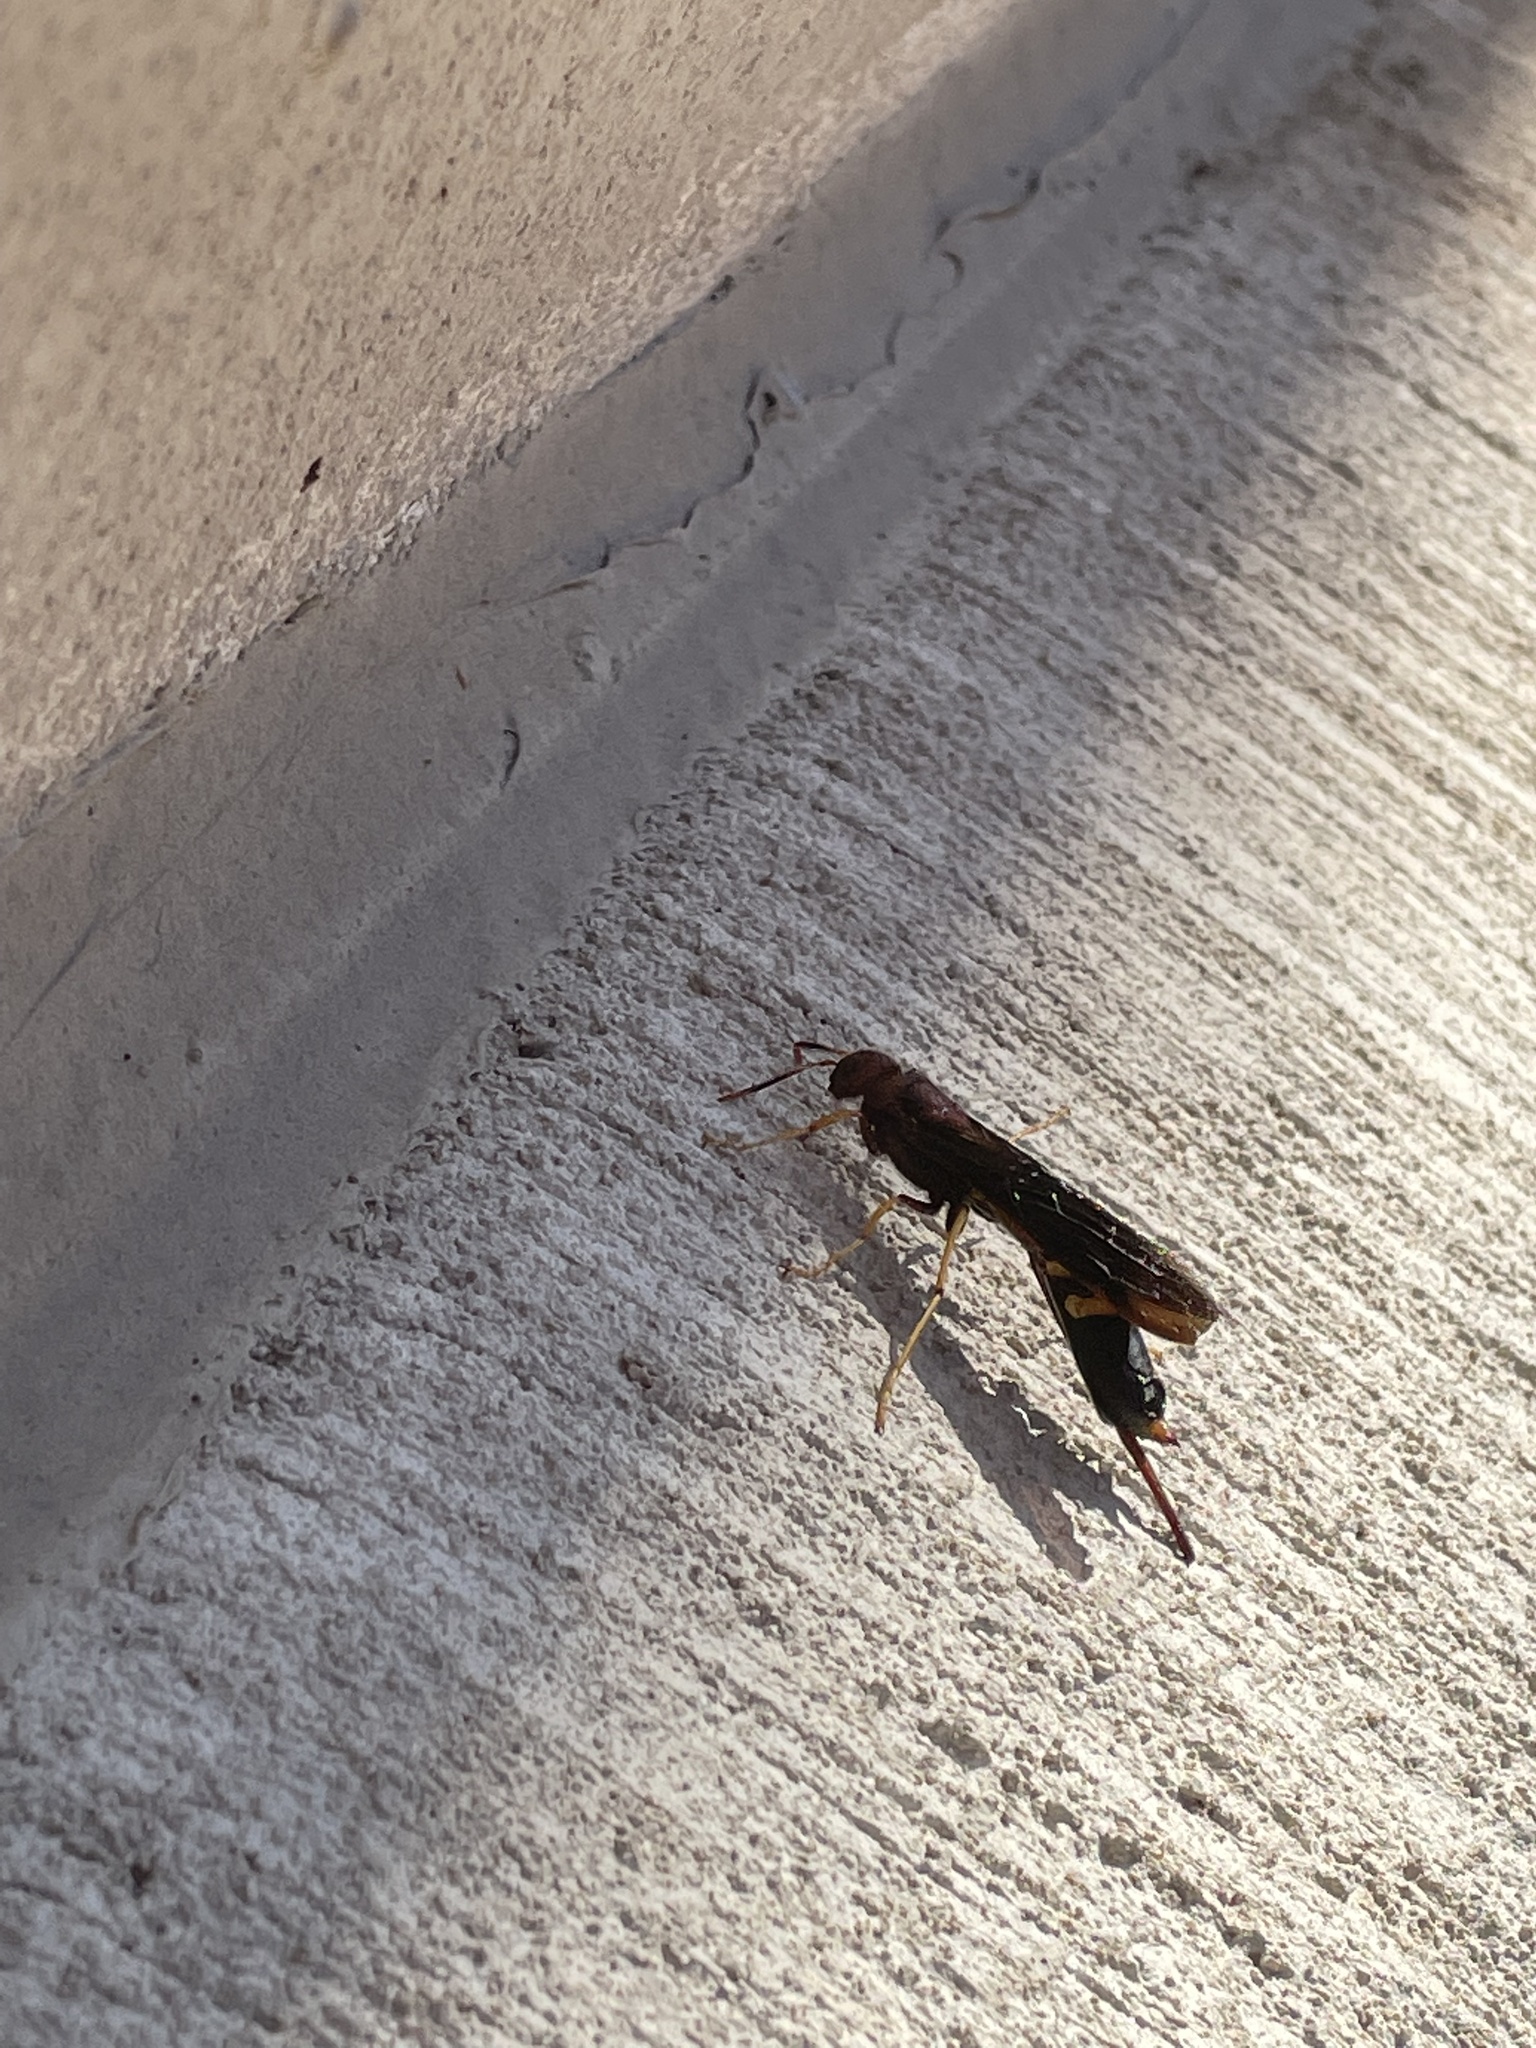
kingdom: Animalia
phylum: Arthropoda
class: Insecta
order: Hymenoptera
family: Siricidae
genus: Tremex
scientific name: Tremex columba
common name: Wasp
